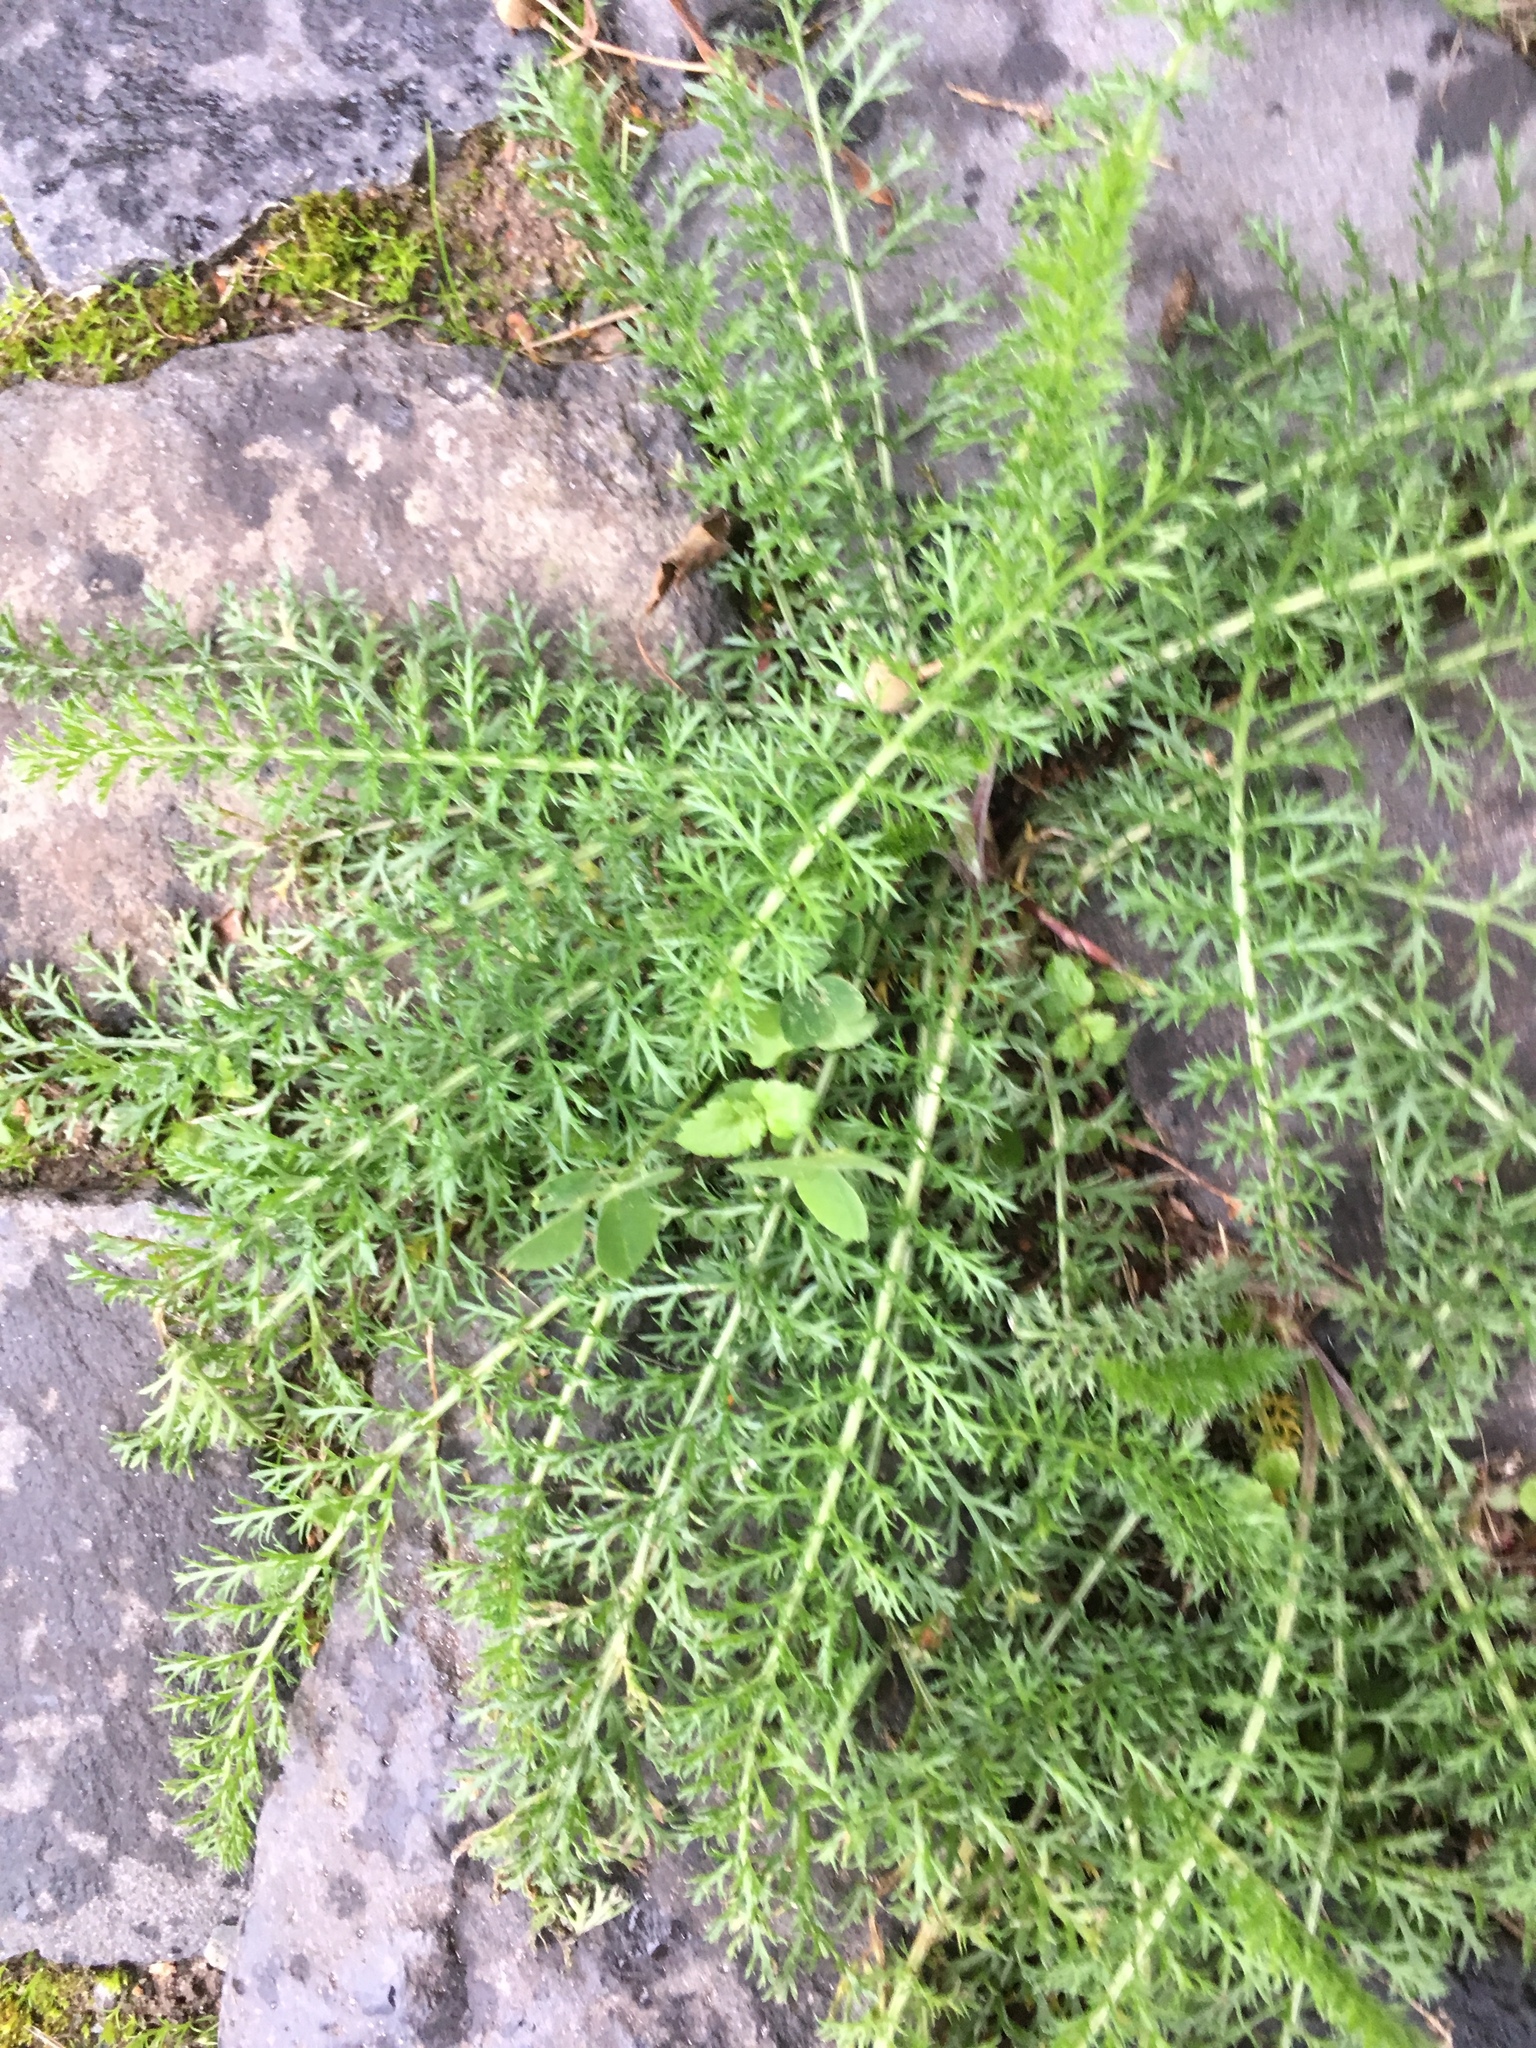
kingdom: Plantae
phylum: Tracheophyta
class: Magnoliopsida
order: Asterales
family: Asteraceae
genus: Achillea
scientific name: Achillea millefolium
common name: Yarrow
